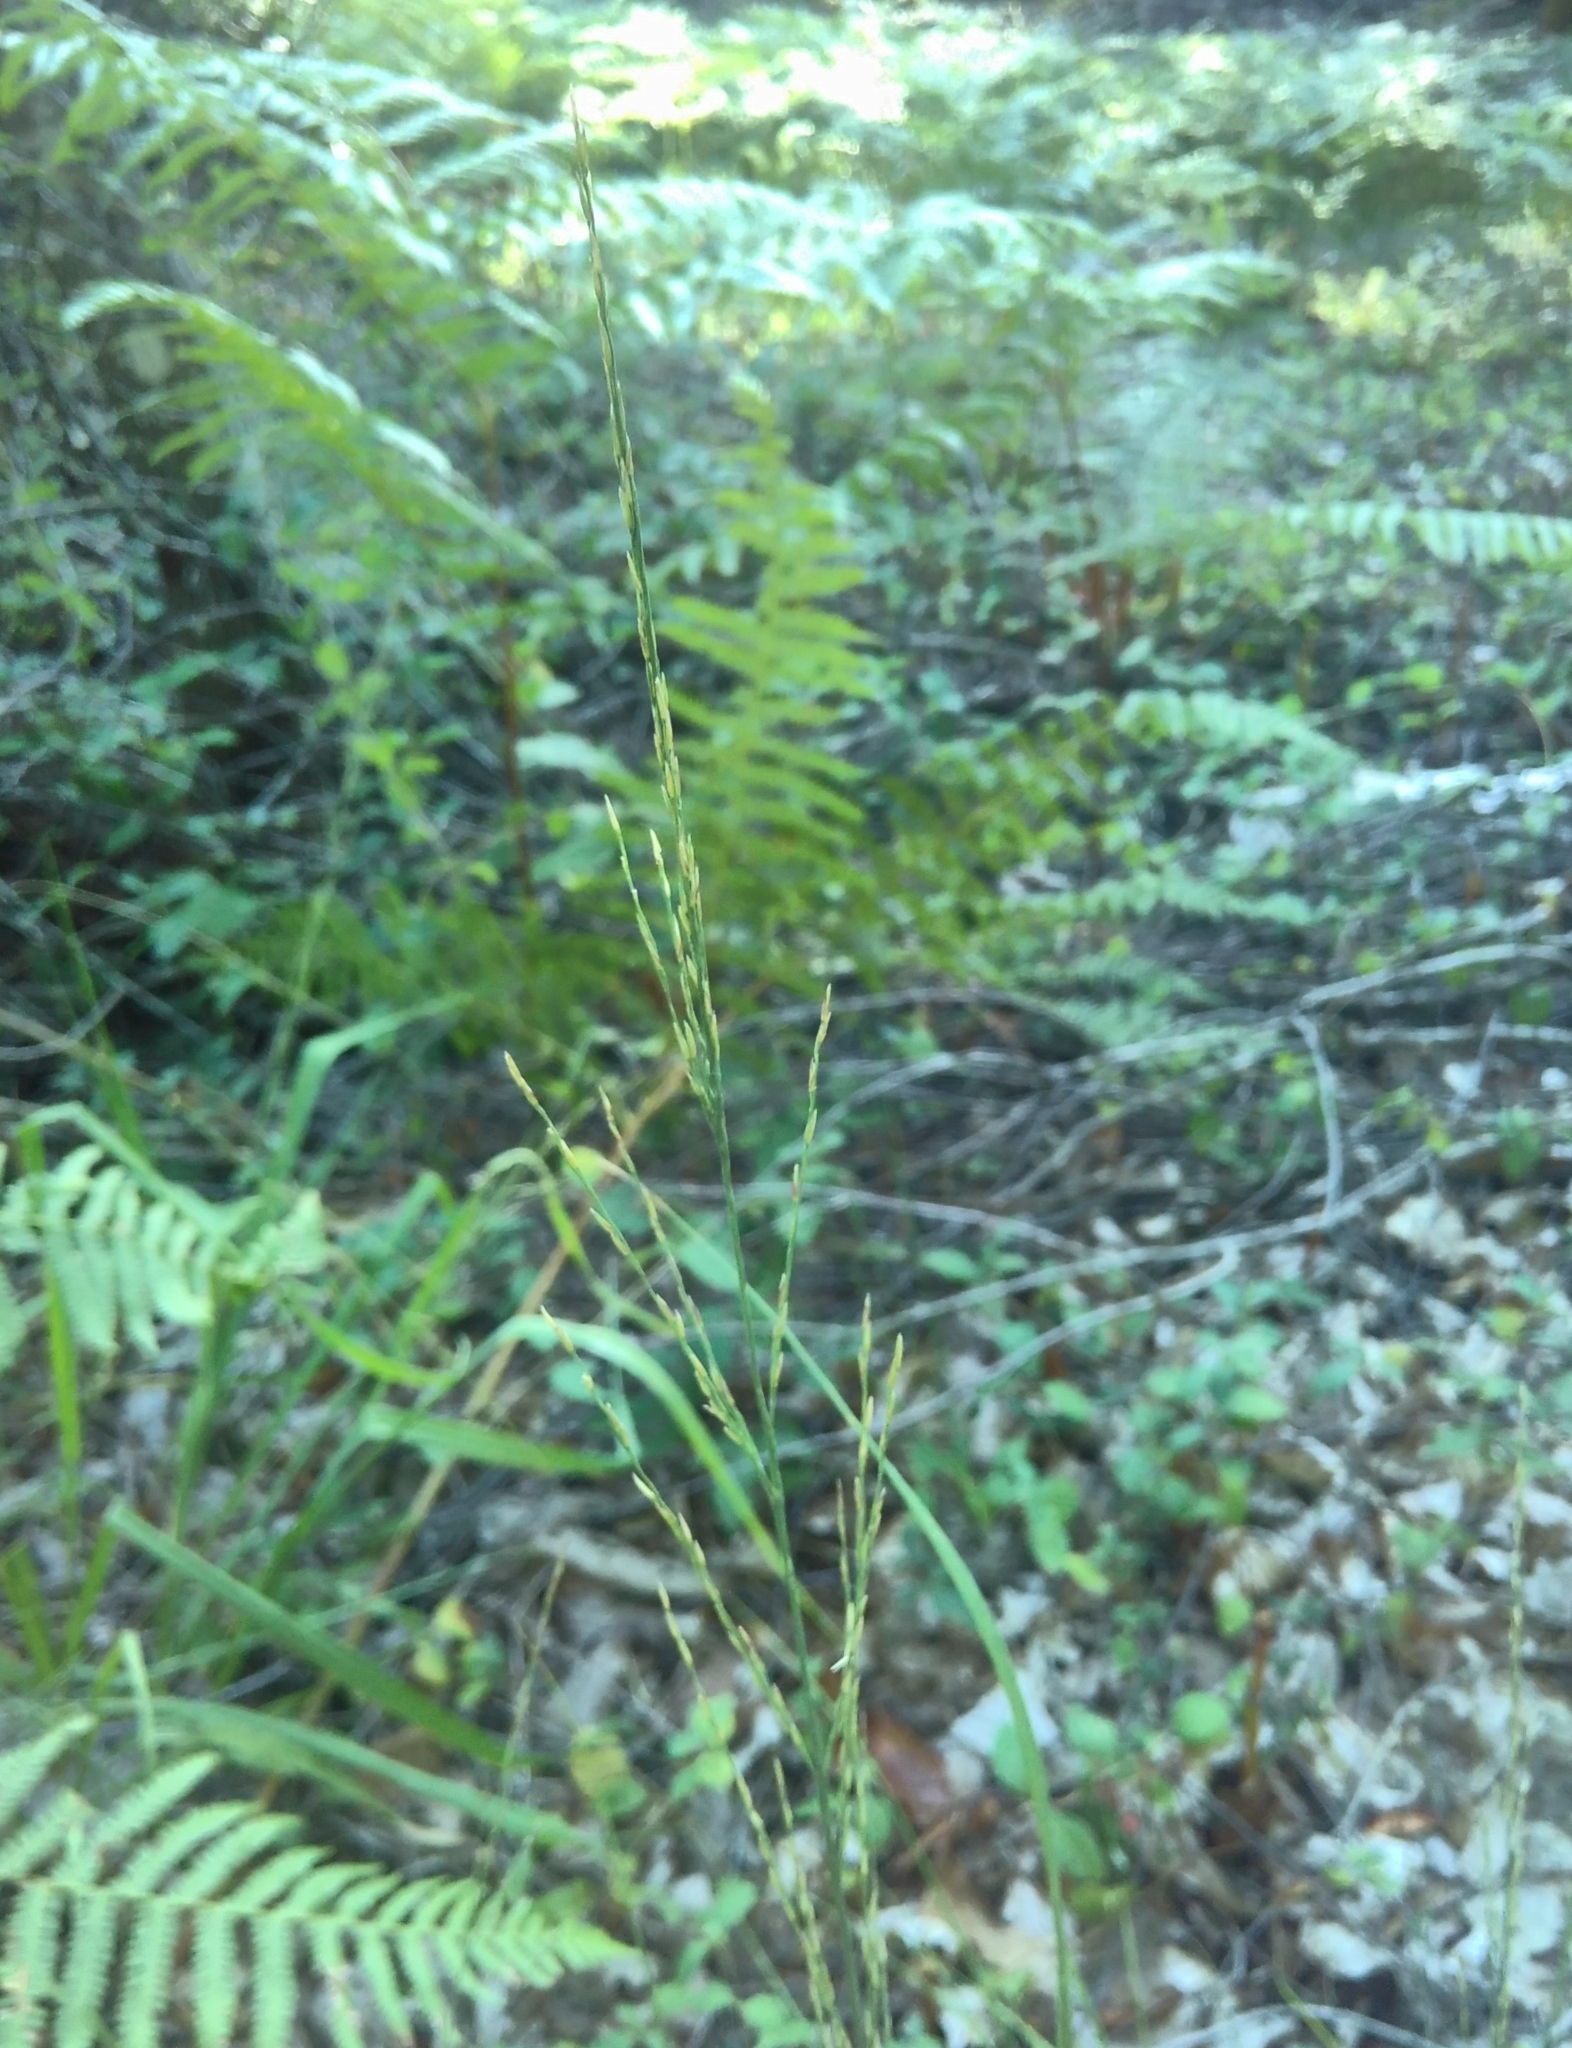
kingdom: Plantae
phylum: Tracheophyta
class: Liliopsida
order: Poales
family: Poaceae
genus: Molinia
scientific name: Molinia caerulea
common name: Purple moor-grass
